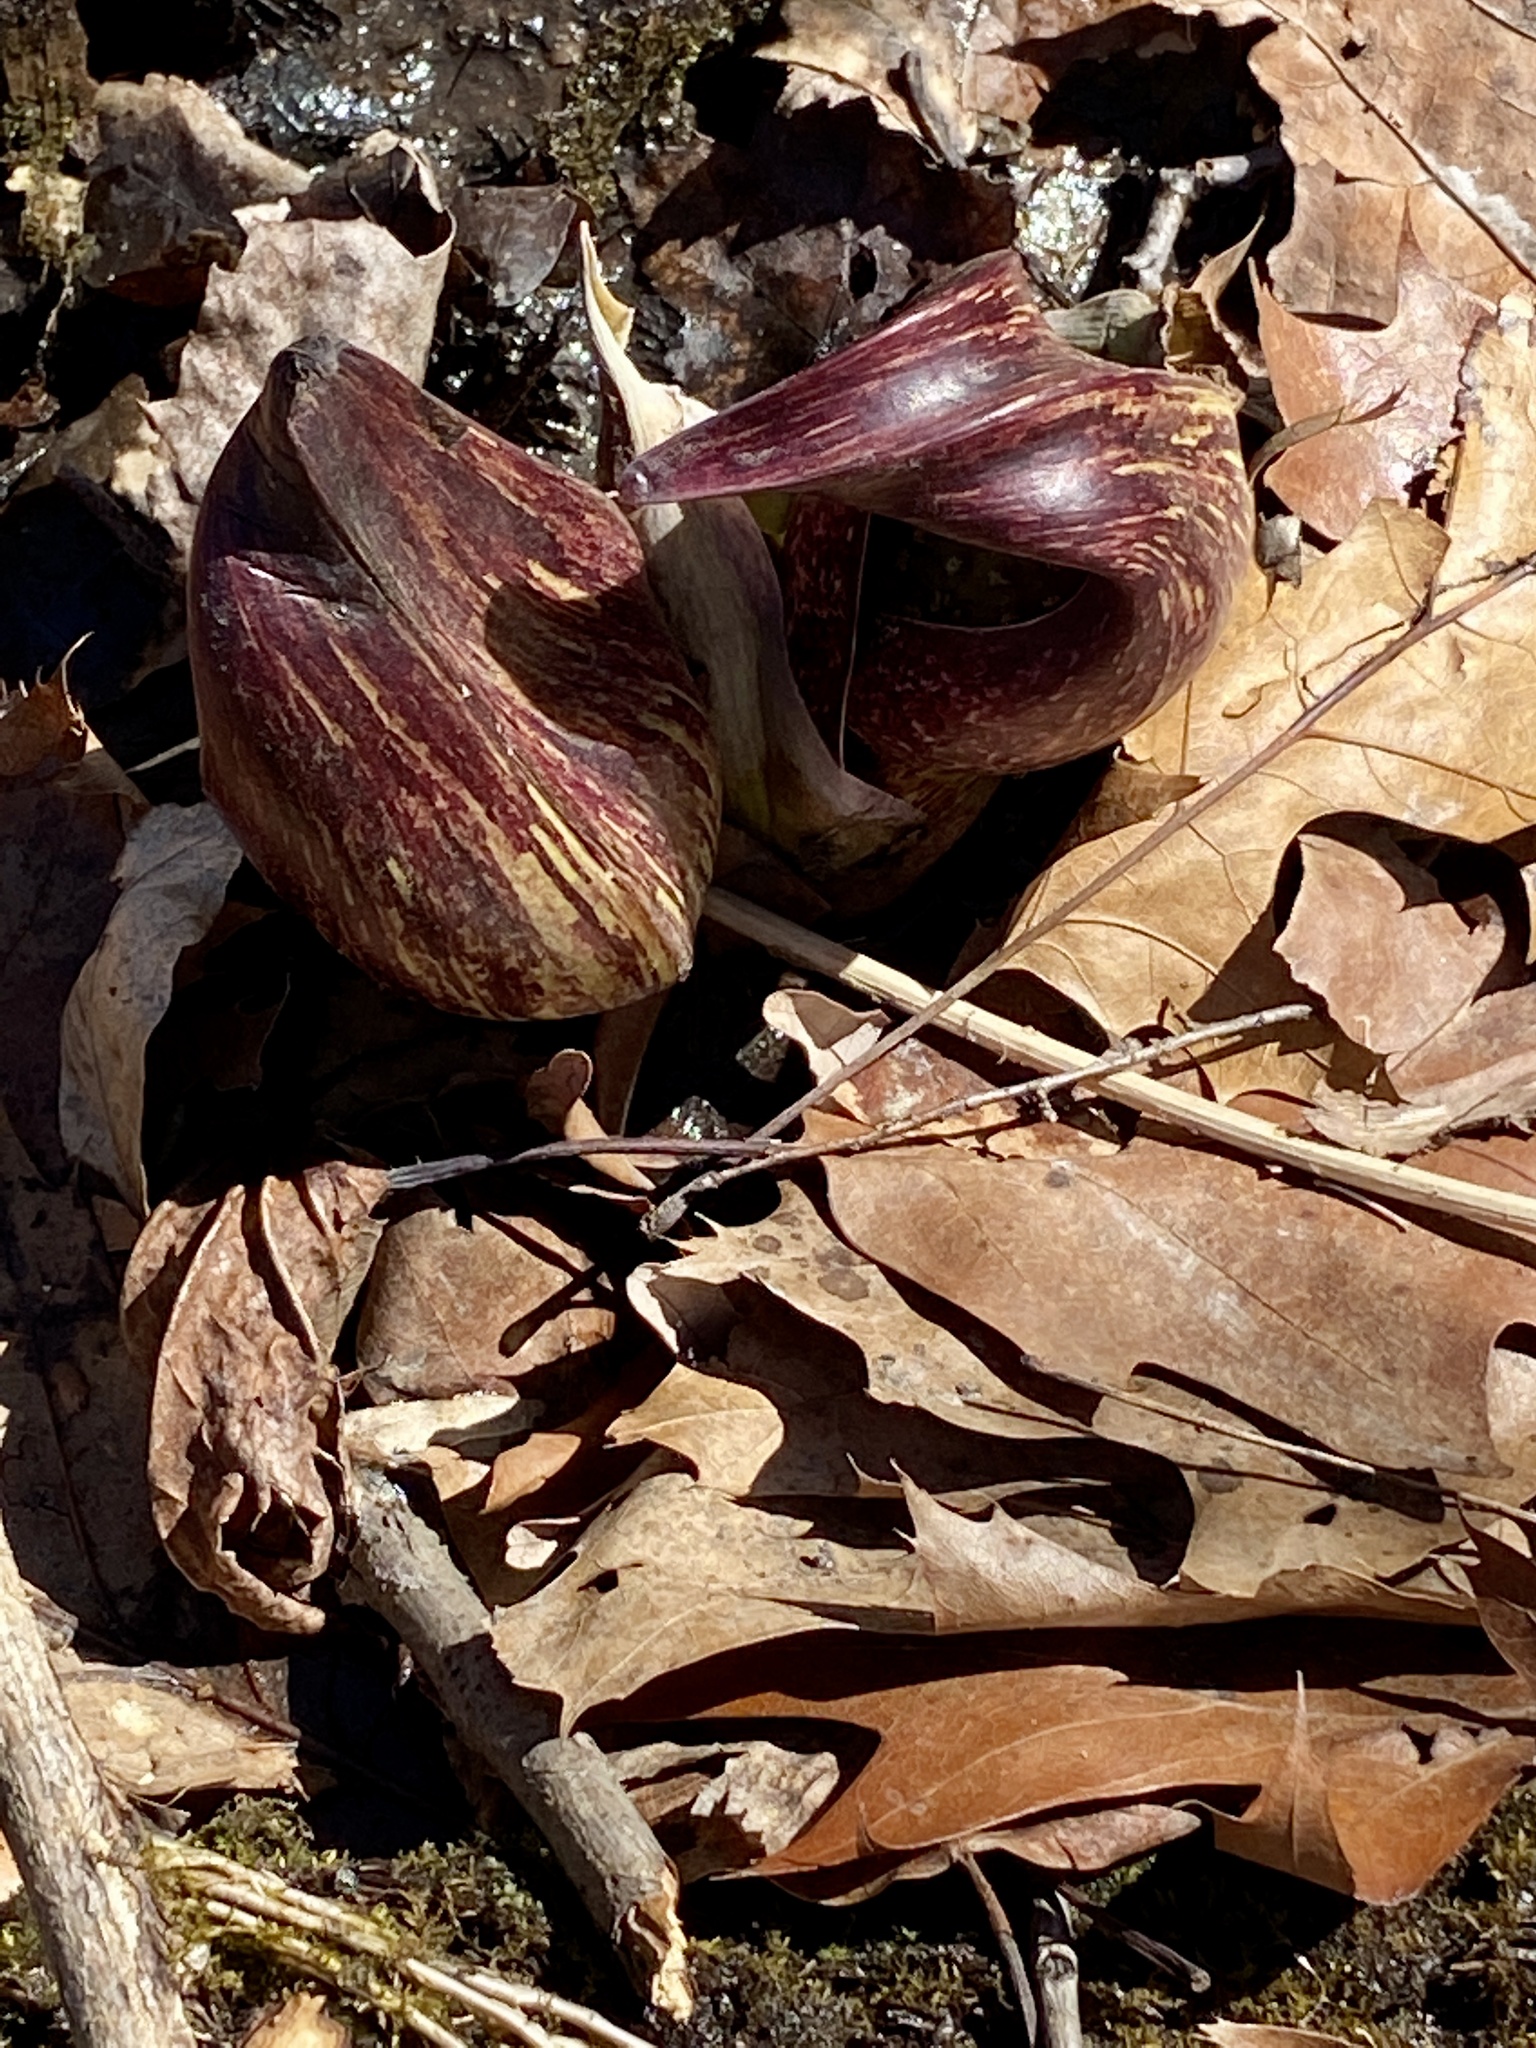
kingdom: Plantae
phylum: Tracheophyta
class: Liliopsida
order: Alismatales
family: Araceae
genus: Symplocarpus
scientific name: Symplocarpus foetidus
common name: Eastern skunk cabbage
